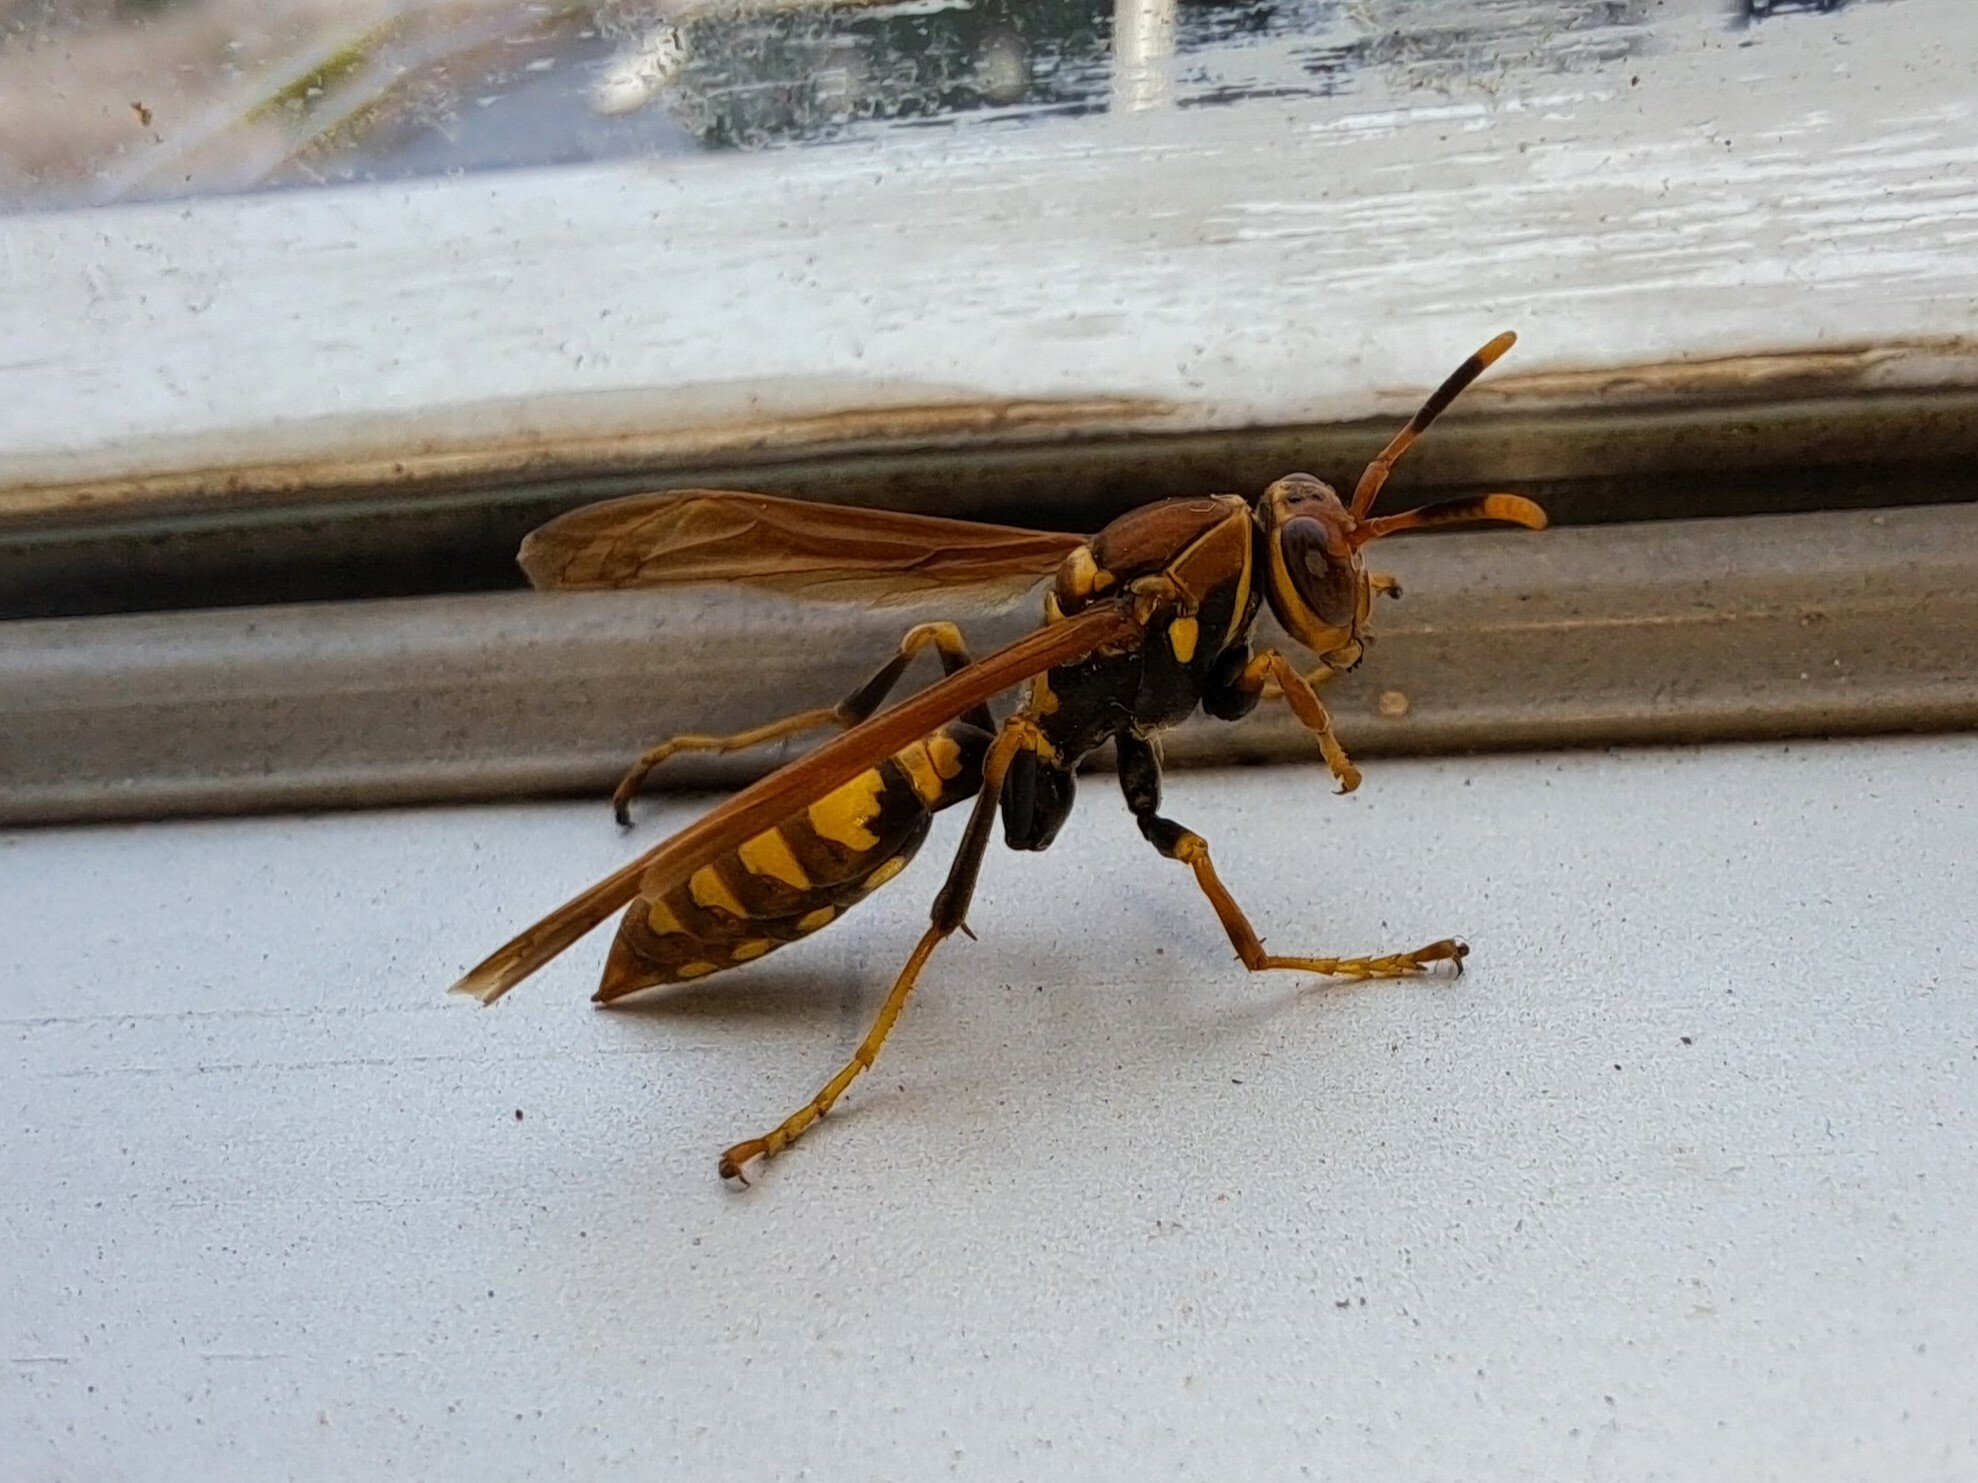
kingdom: Animalia
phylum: Arthropoda
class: Insecta
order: Hymenoptera
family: Eumenidae
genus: Polistes
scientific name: Polistes versicolor
